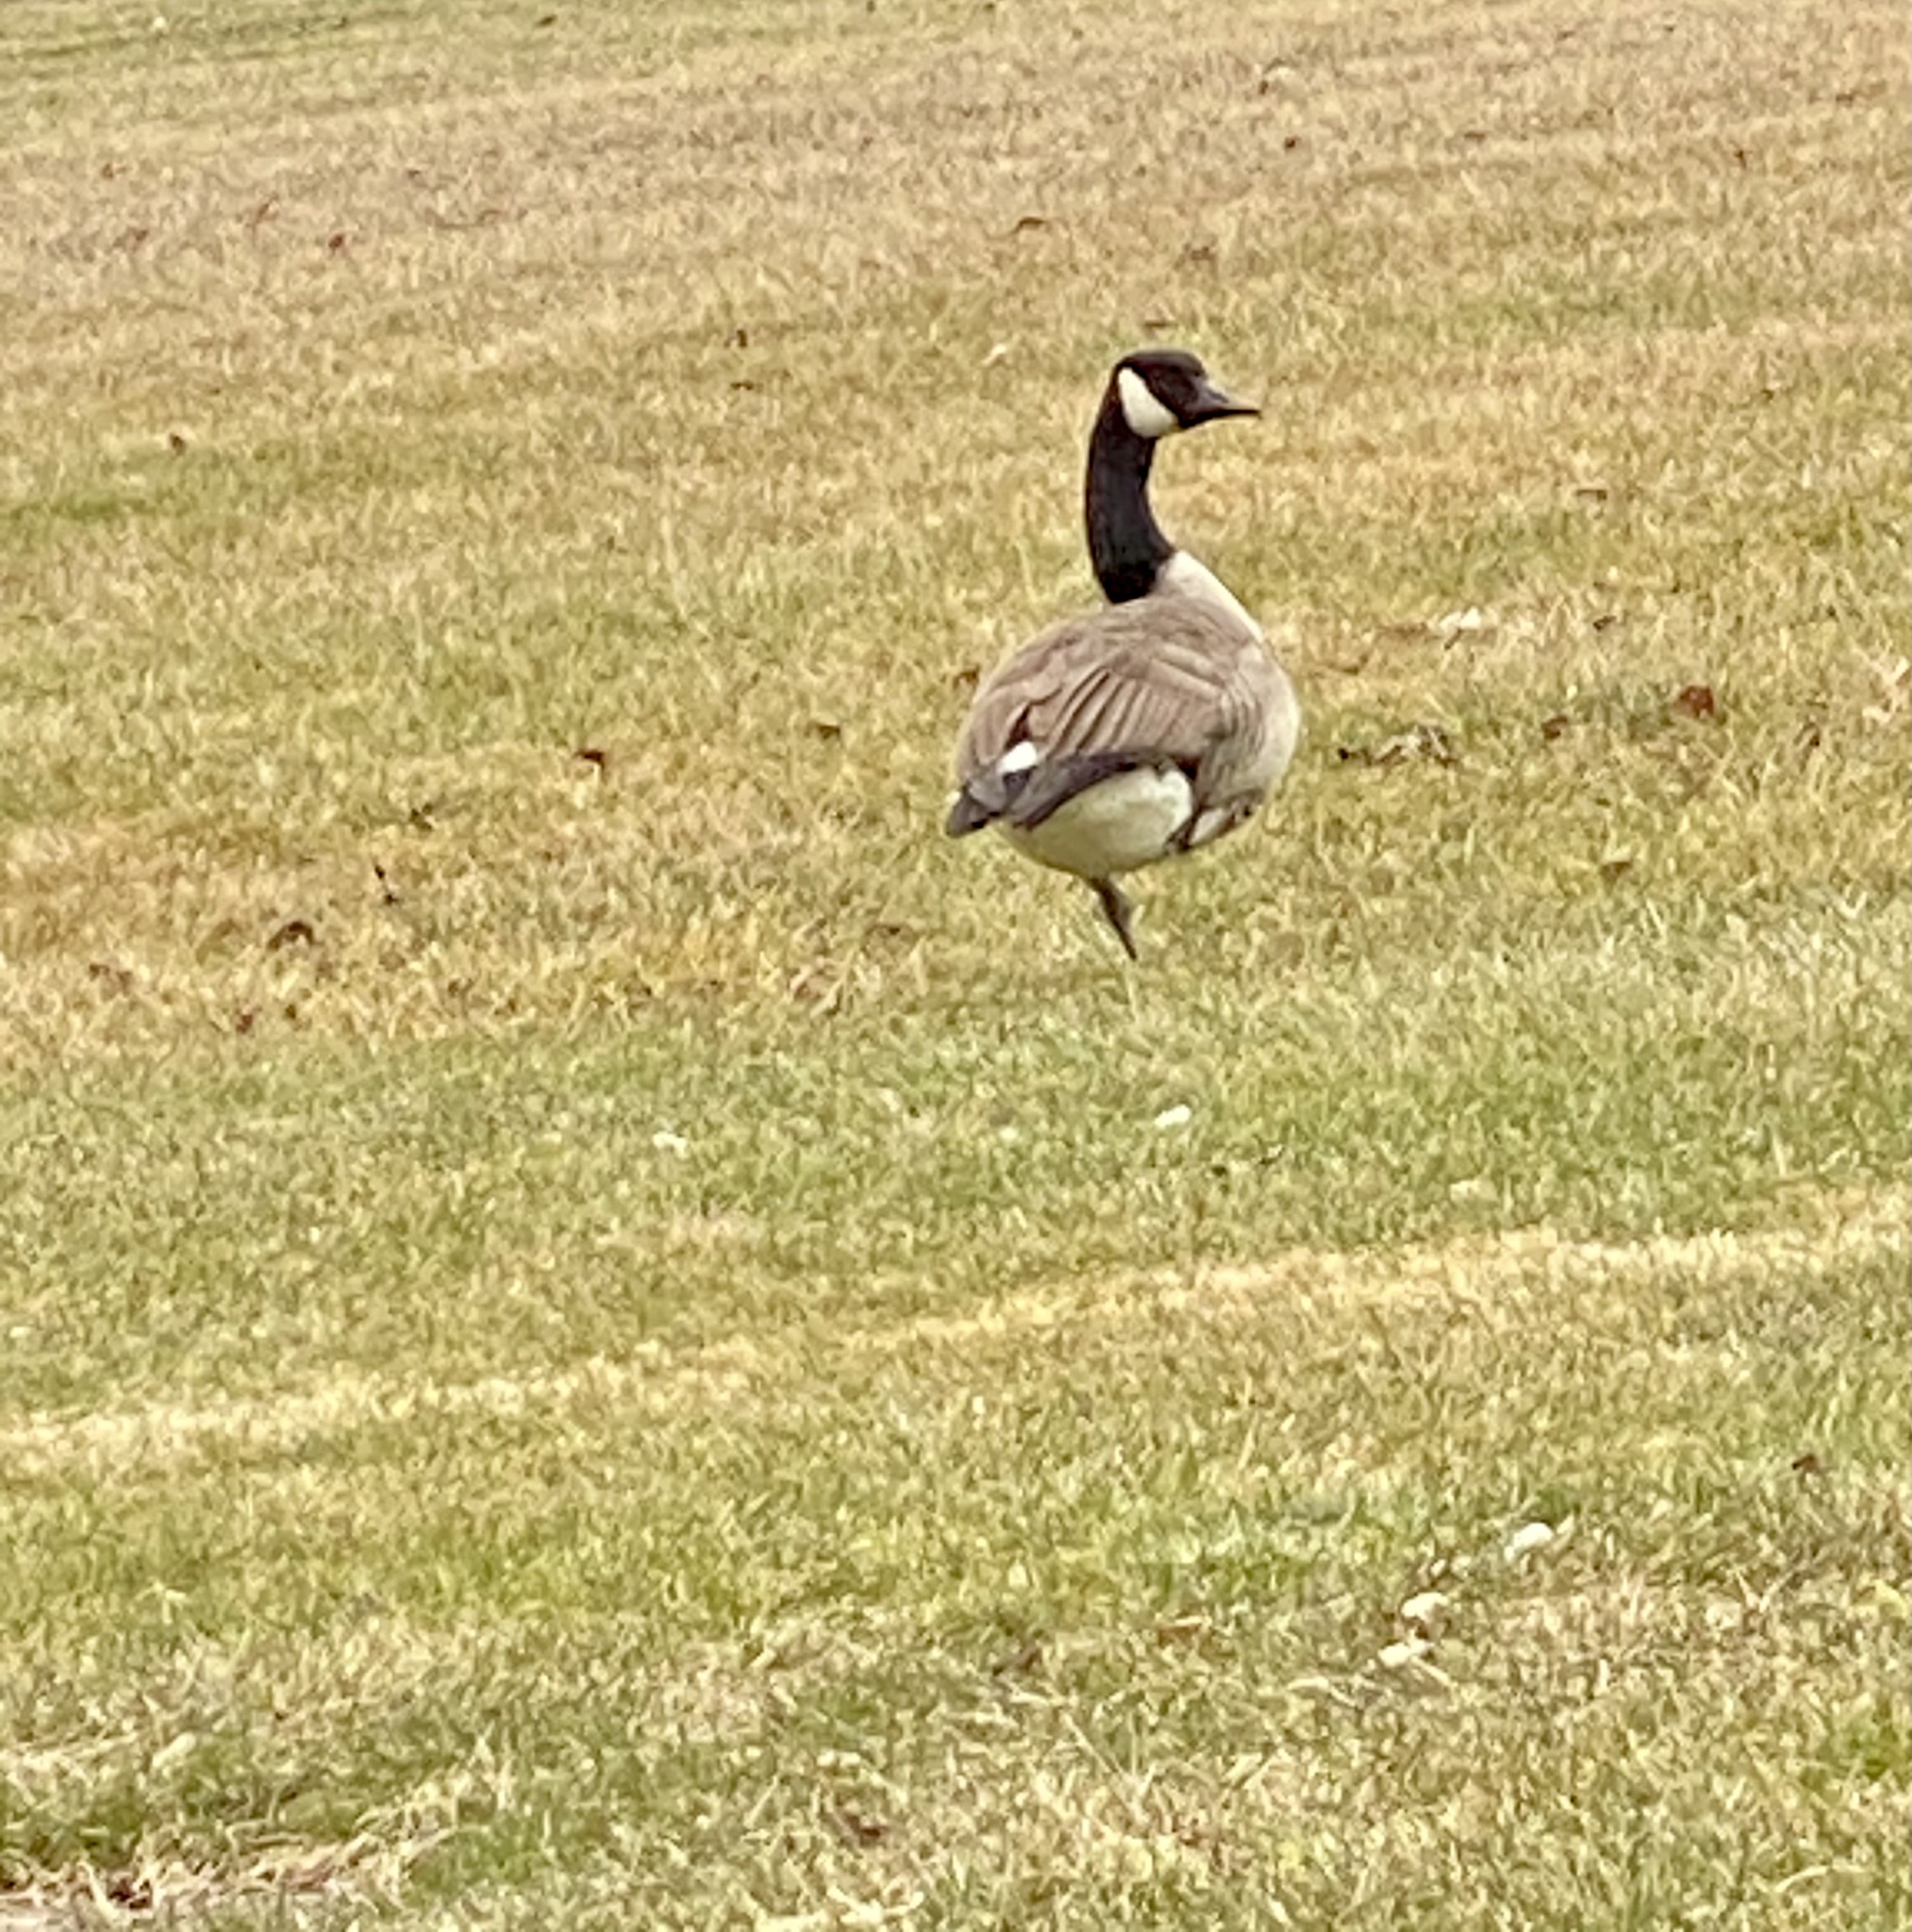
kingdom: Animalia
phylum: Chordata
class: Aves
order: Anseriformes
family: Anatidae
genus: Branta
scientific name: Branta canadensis
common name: Canada goose
